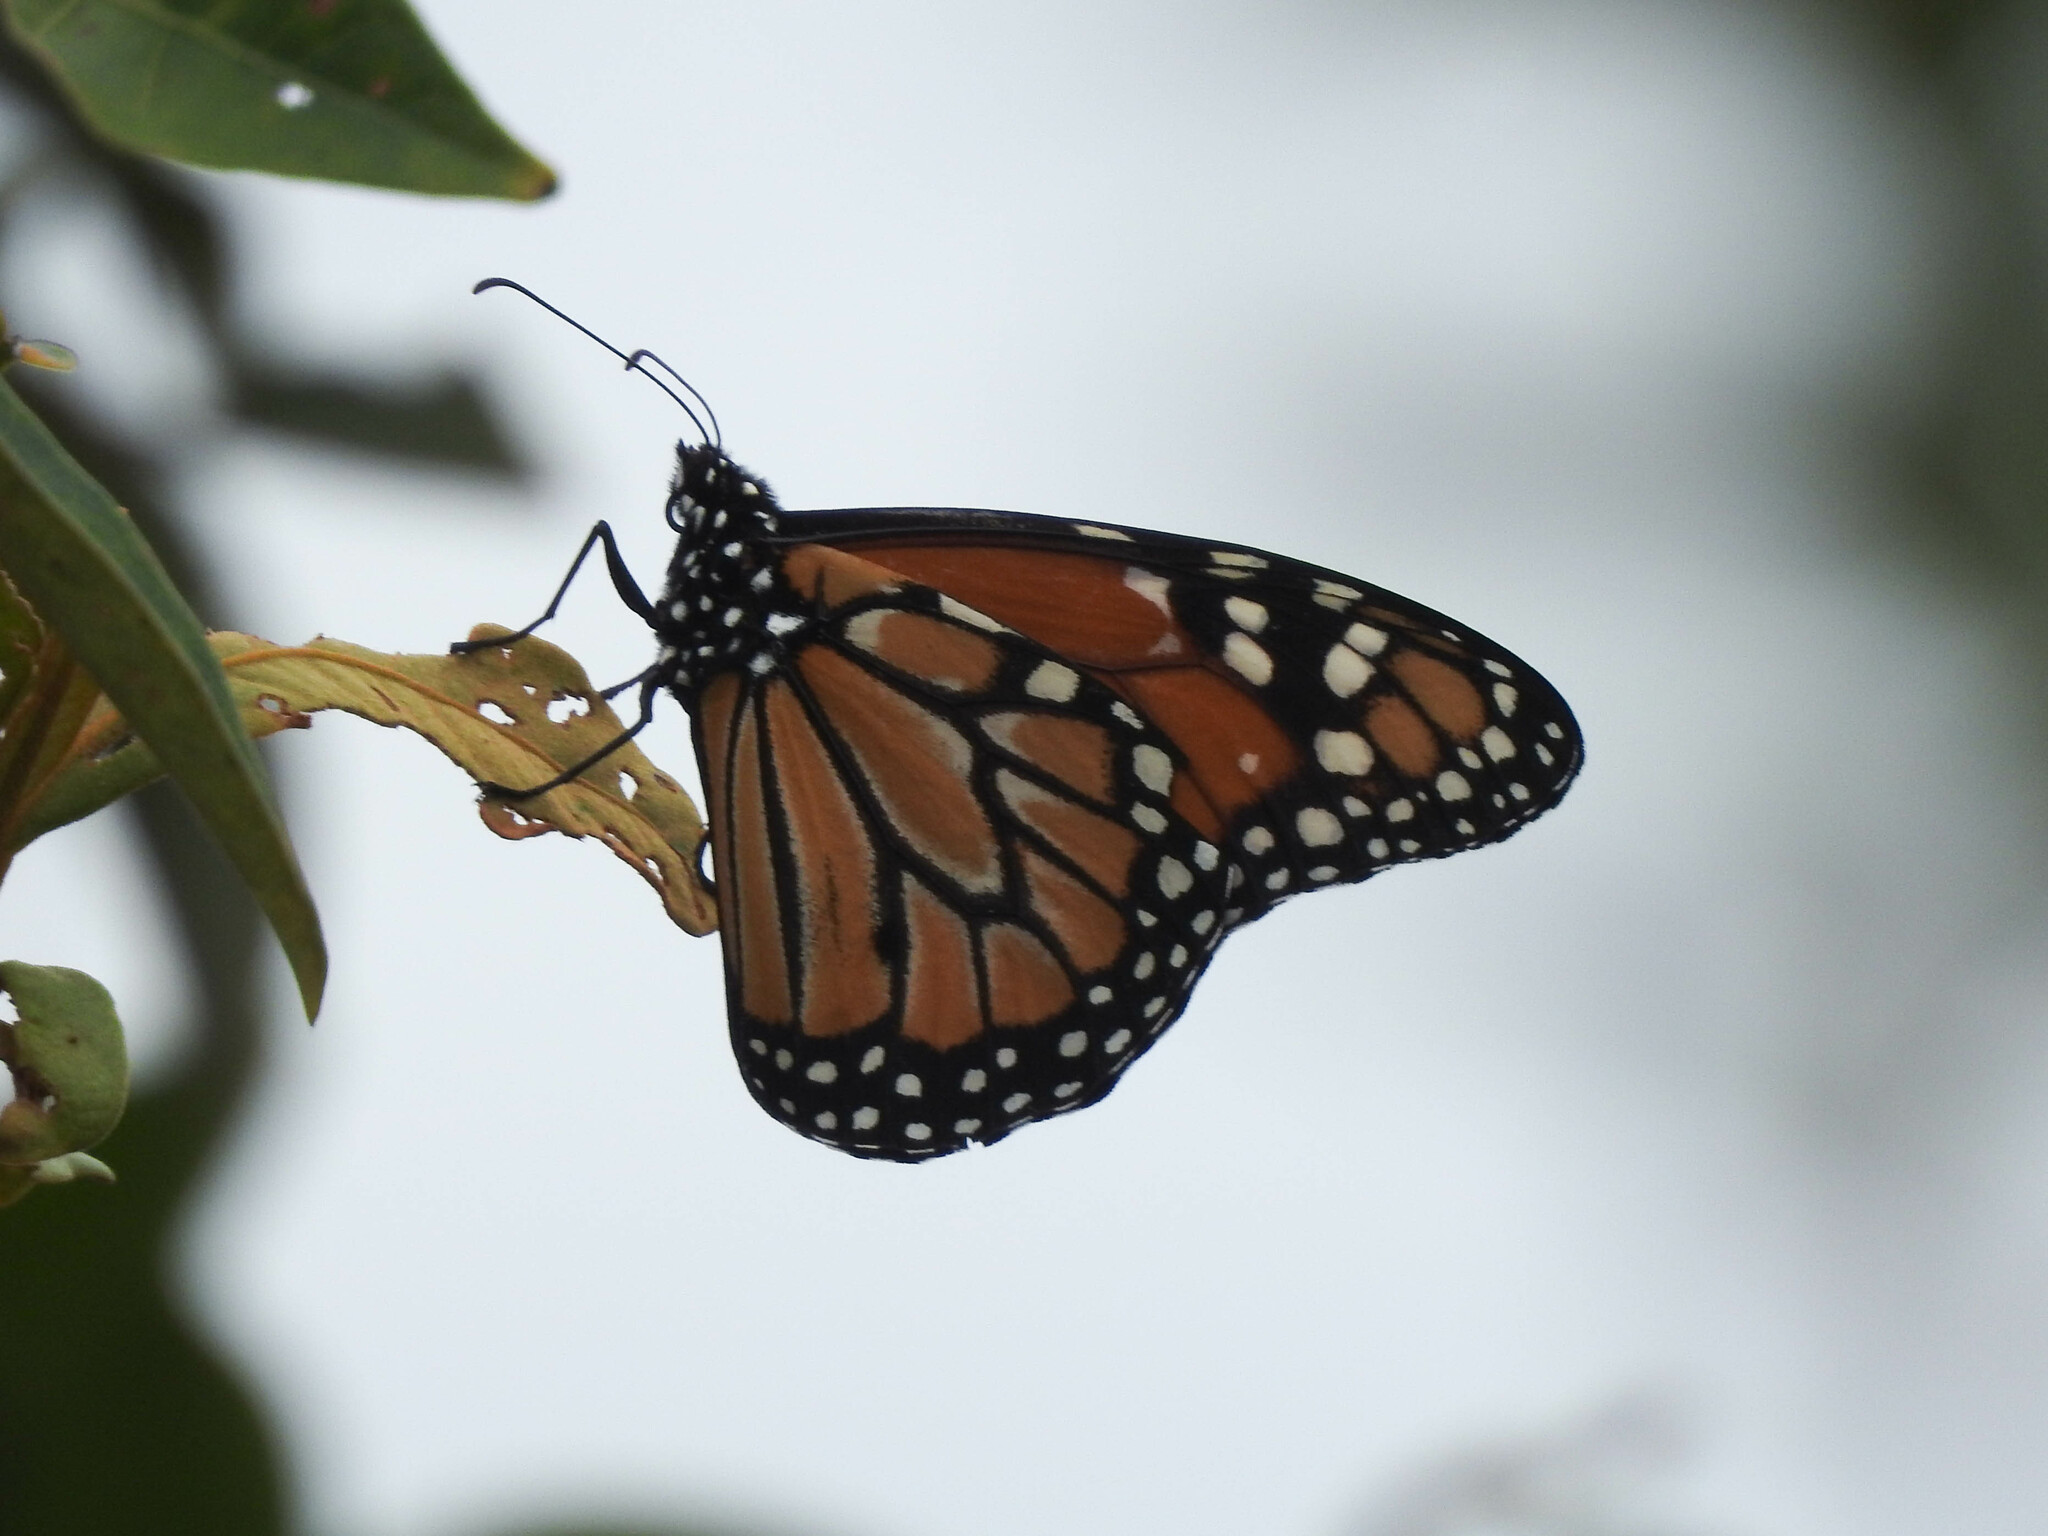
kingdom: Animalia
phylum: Arthropoda
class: Insecta
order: Lepidoptera
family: Nymphalidae
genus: Danaus
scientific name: Danaus erippus
